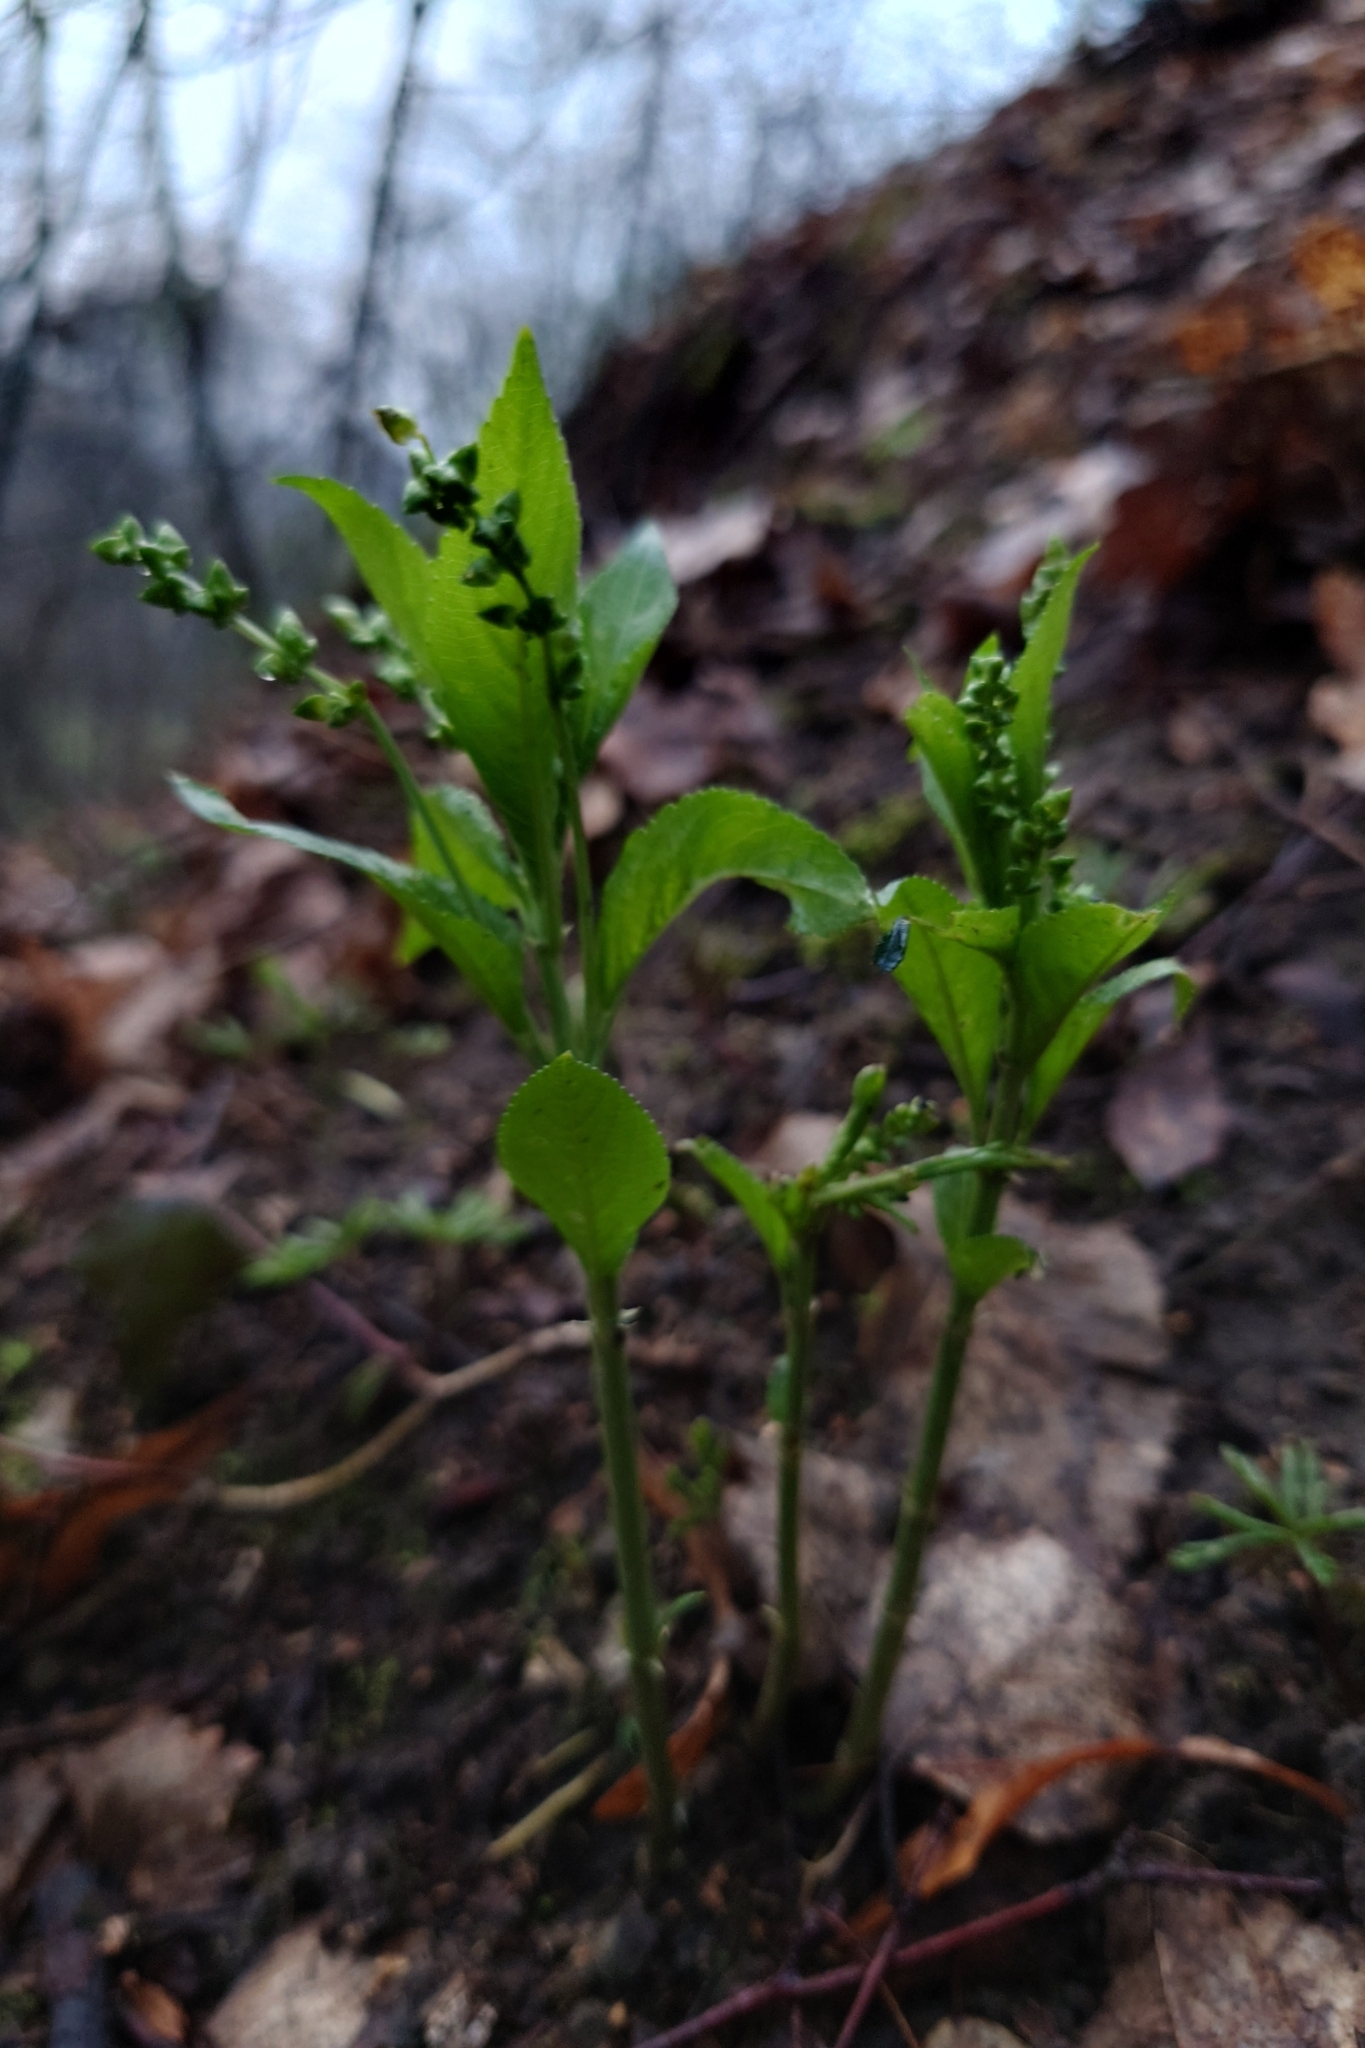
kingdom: Plantae
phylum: Tracheophyta
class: Magnoliopsida
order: Malpighiales
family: Euphorbiaceae
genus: Mercurialis
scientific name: Mercurialis perennis
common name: Dog mercury
